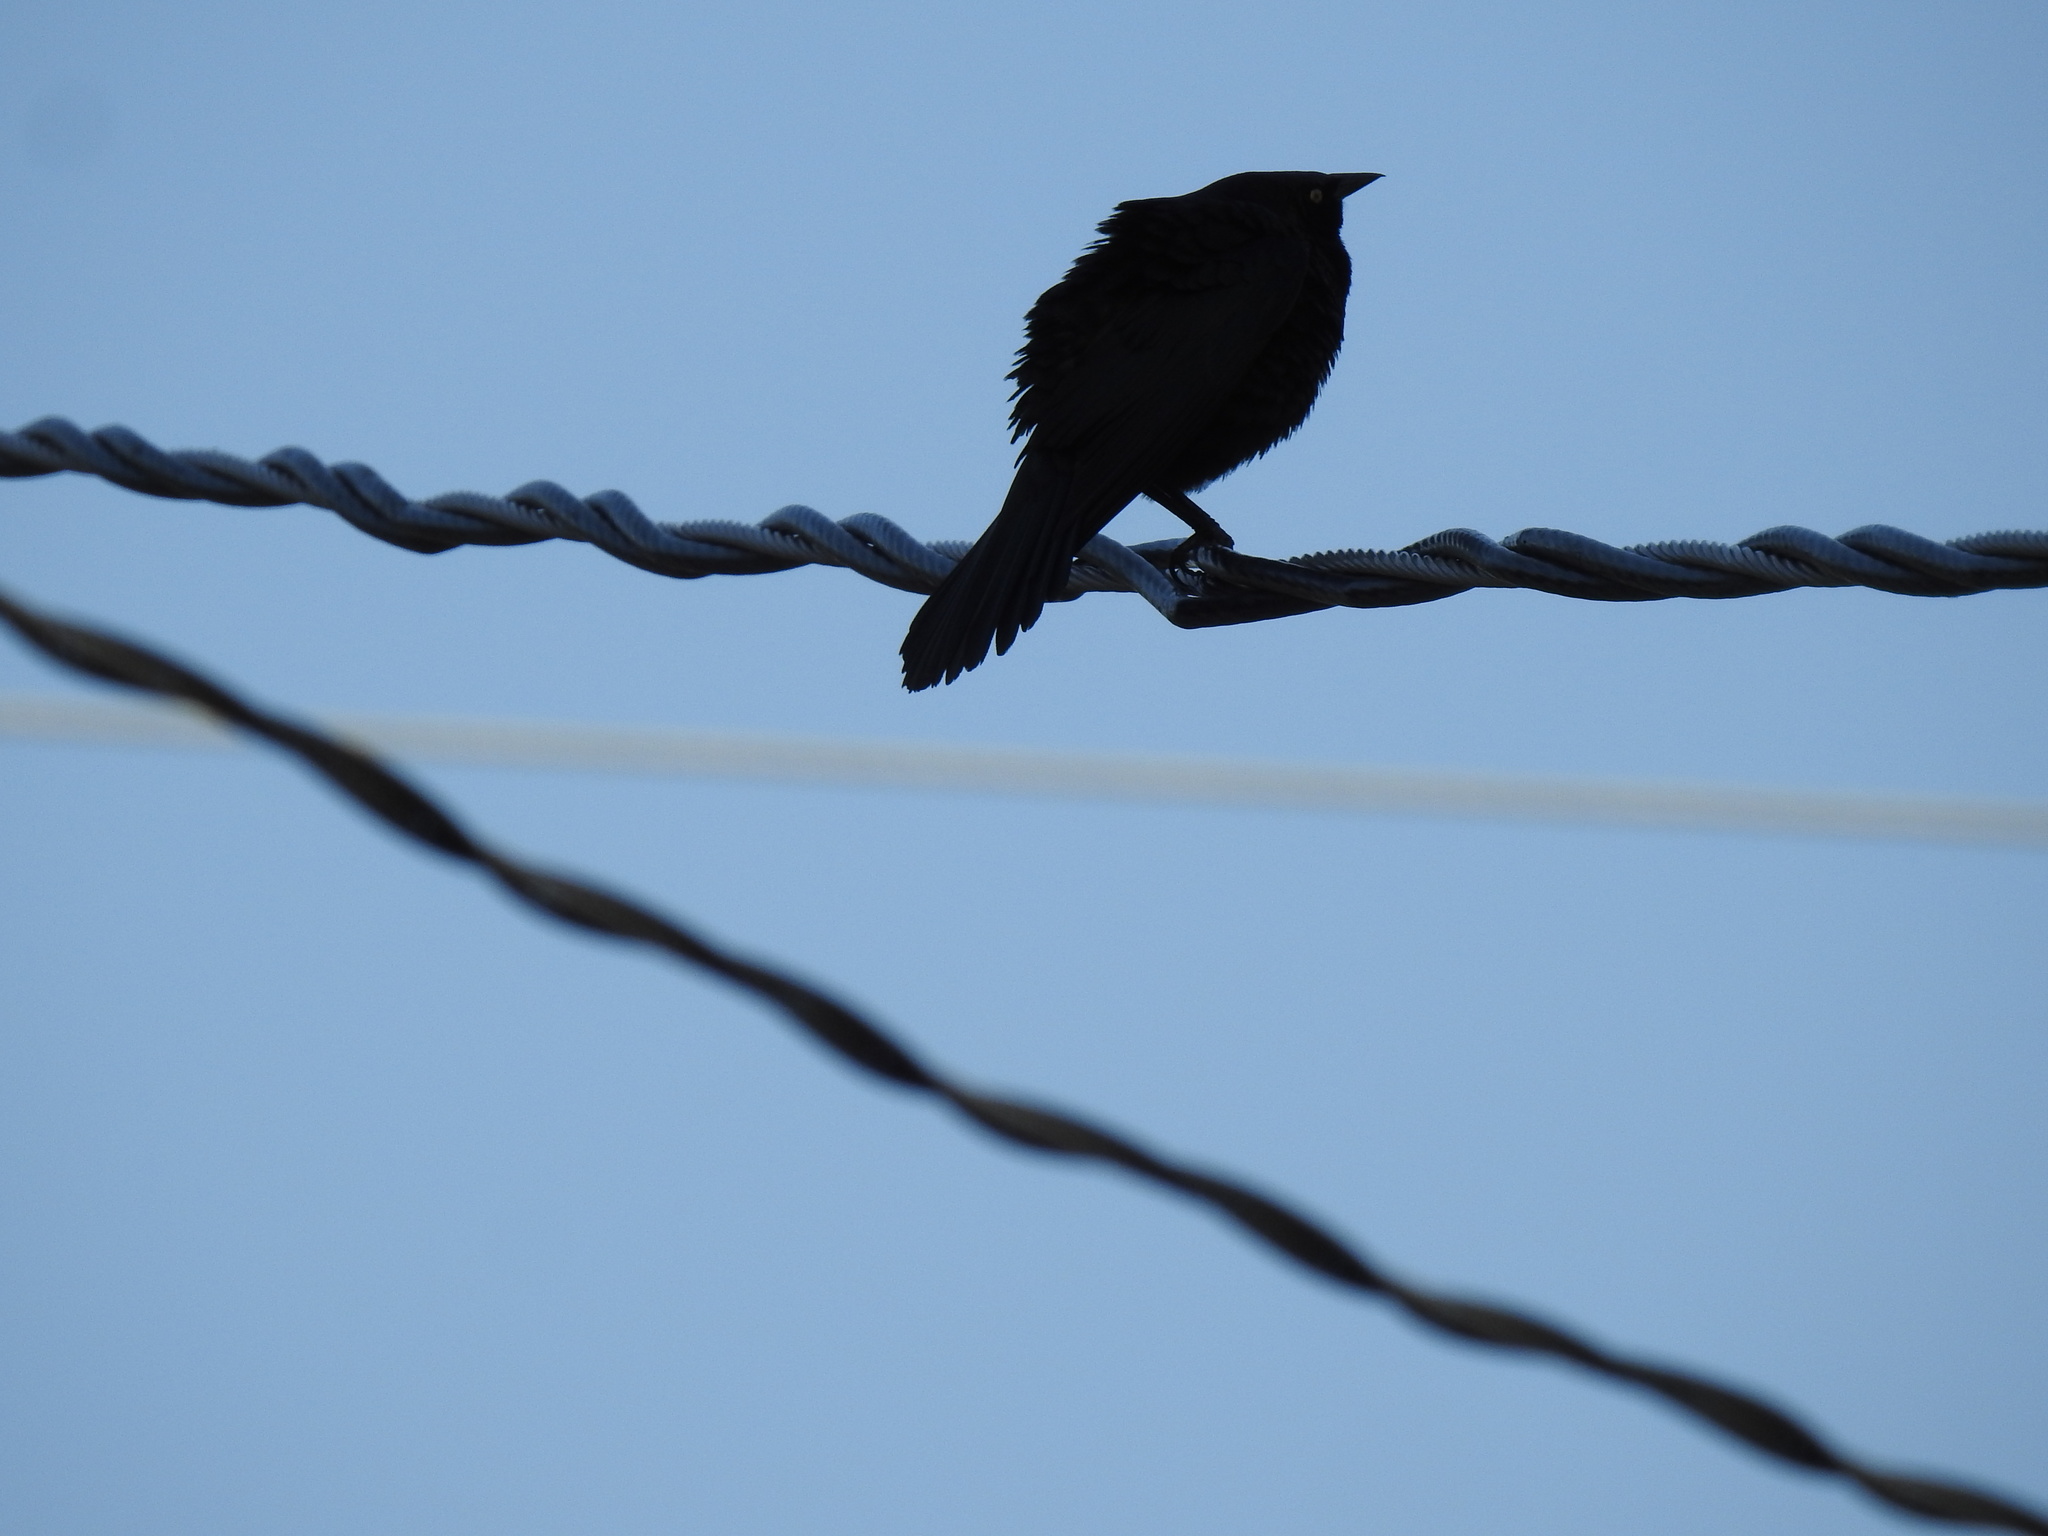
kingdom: Animalia
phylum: Chordata
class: Aves
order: Passeriformes
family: Icteridae
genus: Euphagus
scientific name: Euphagus cyanocephalus
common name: Brewer's blackbird
